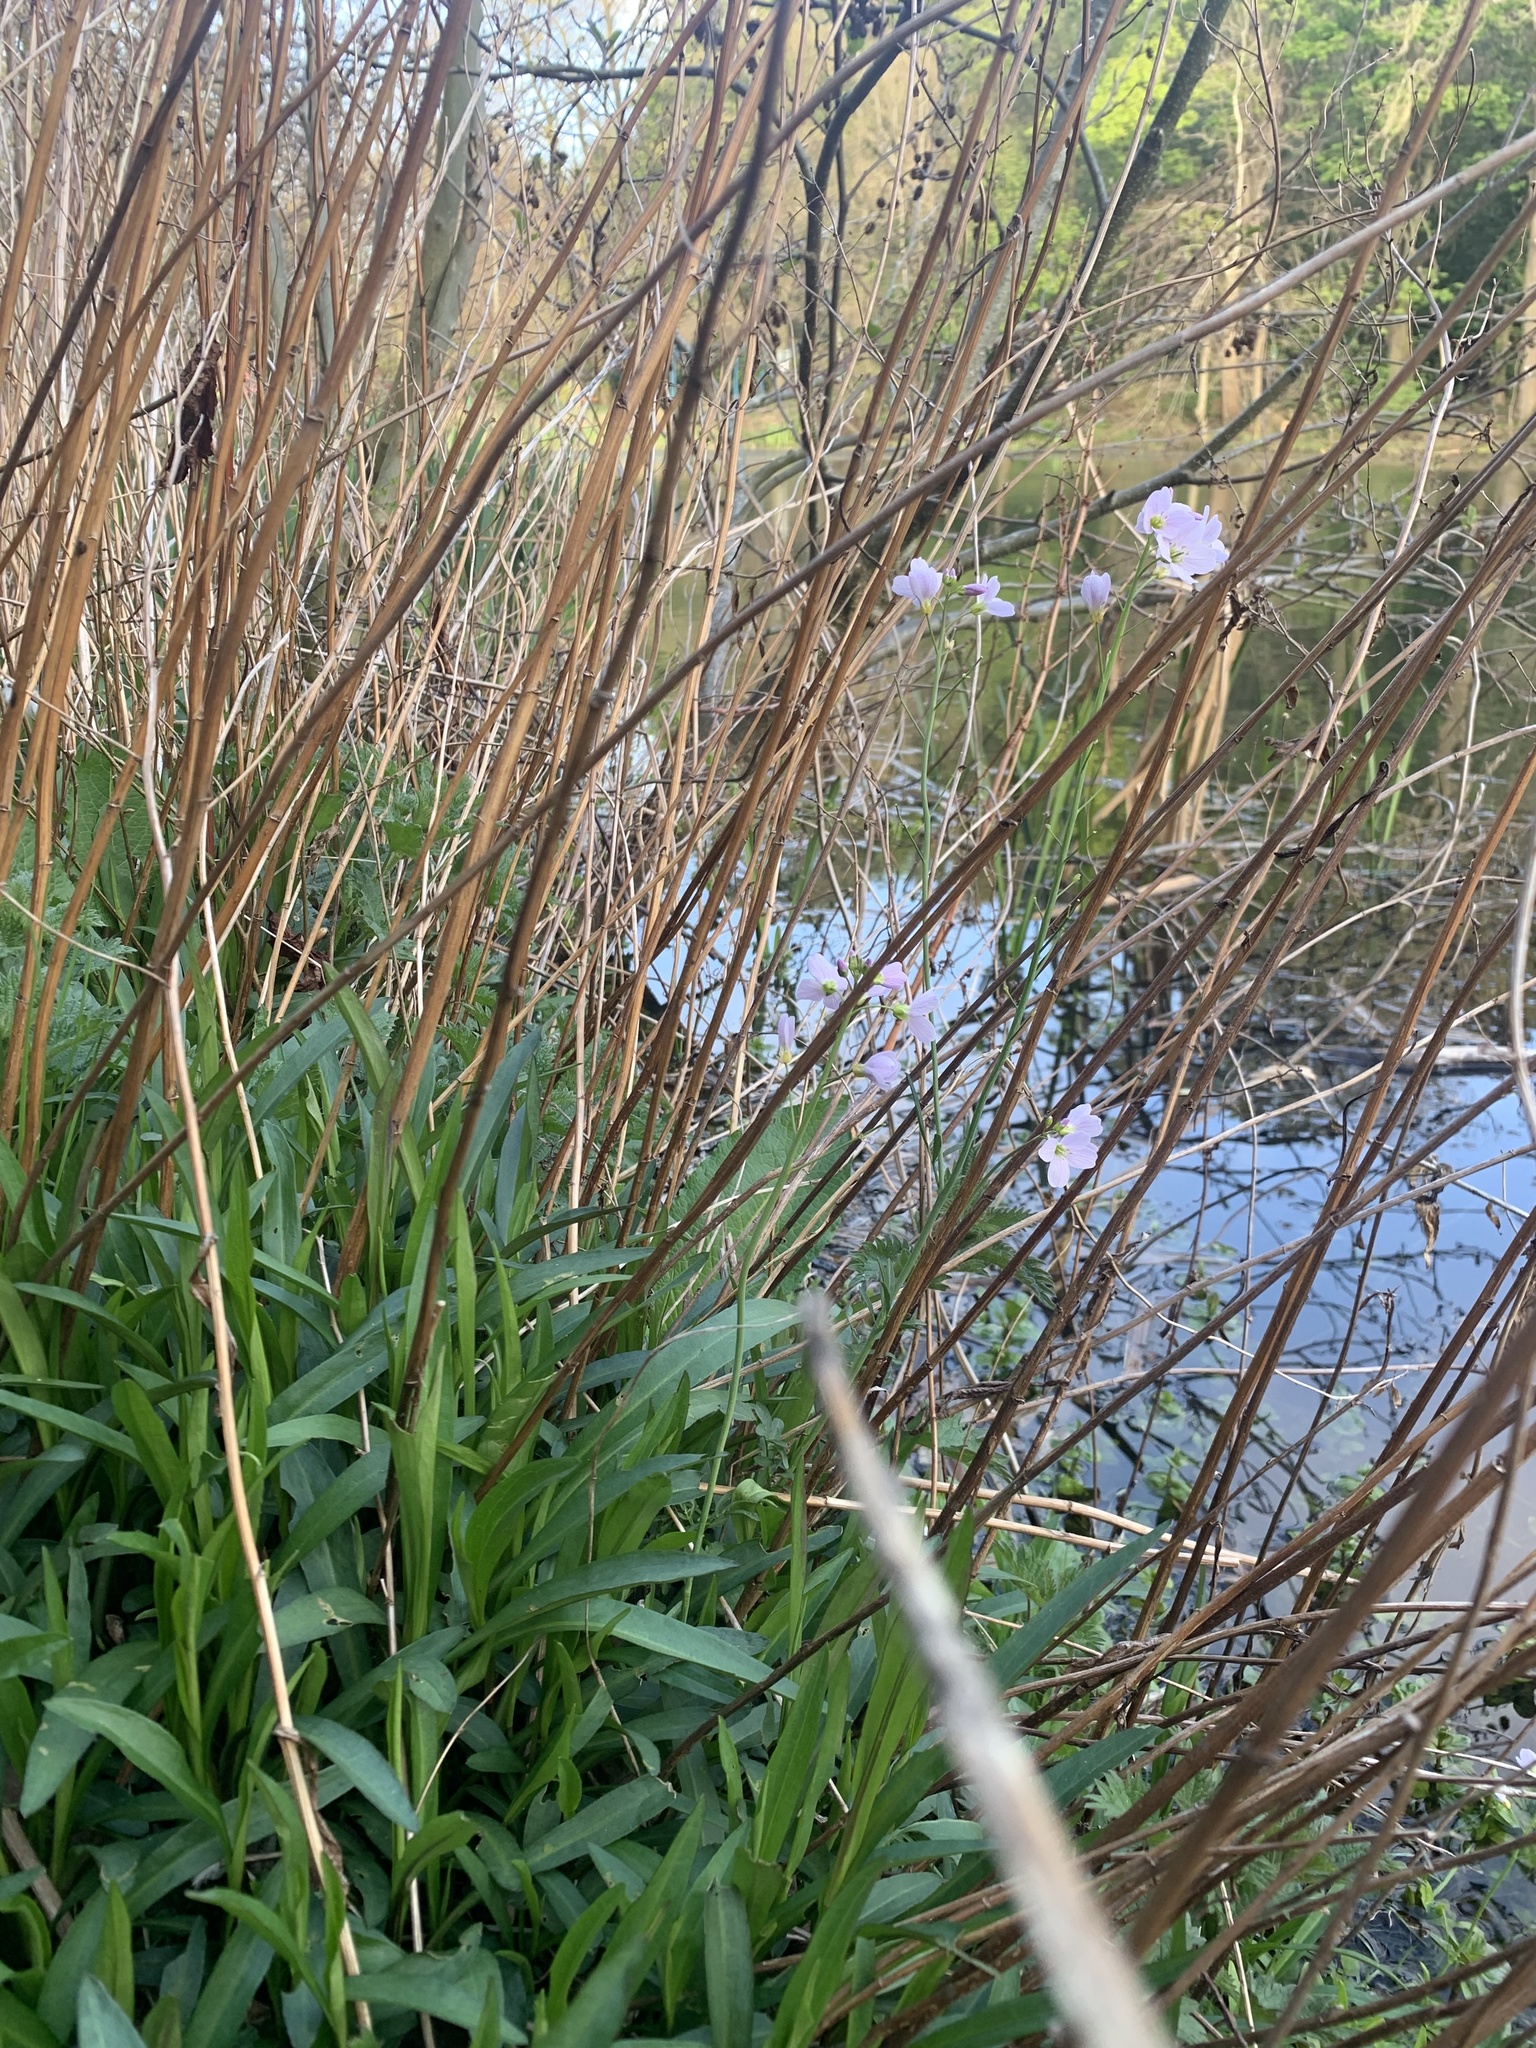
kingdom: Plantae
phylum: Tracheophyta
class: Magnoliopsida
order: Brassicales
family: Brassicaceae
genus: Cardamine
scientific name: Cardamine pratensis
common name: Cuckoo flower
